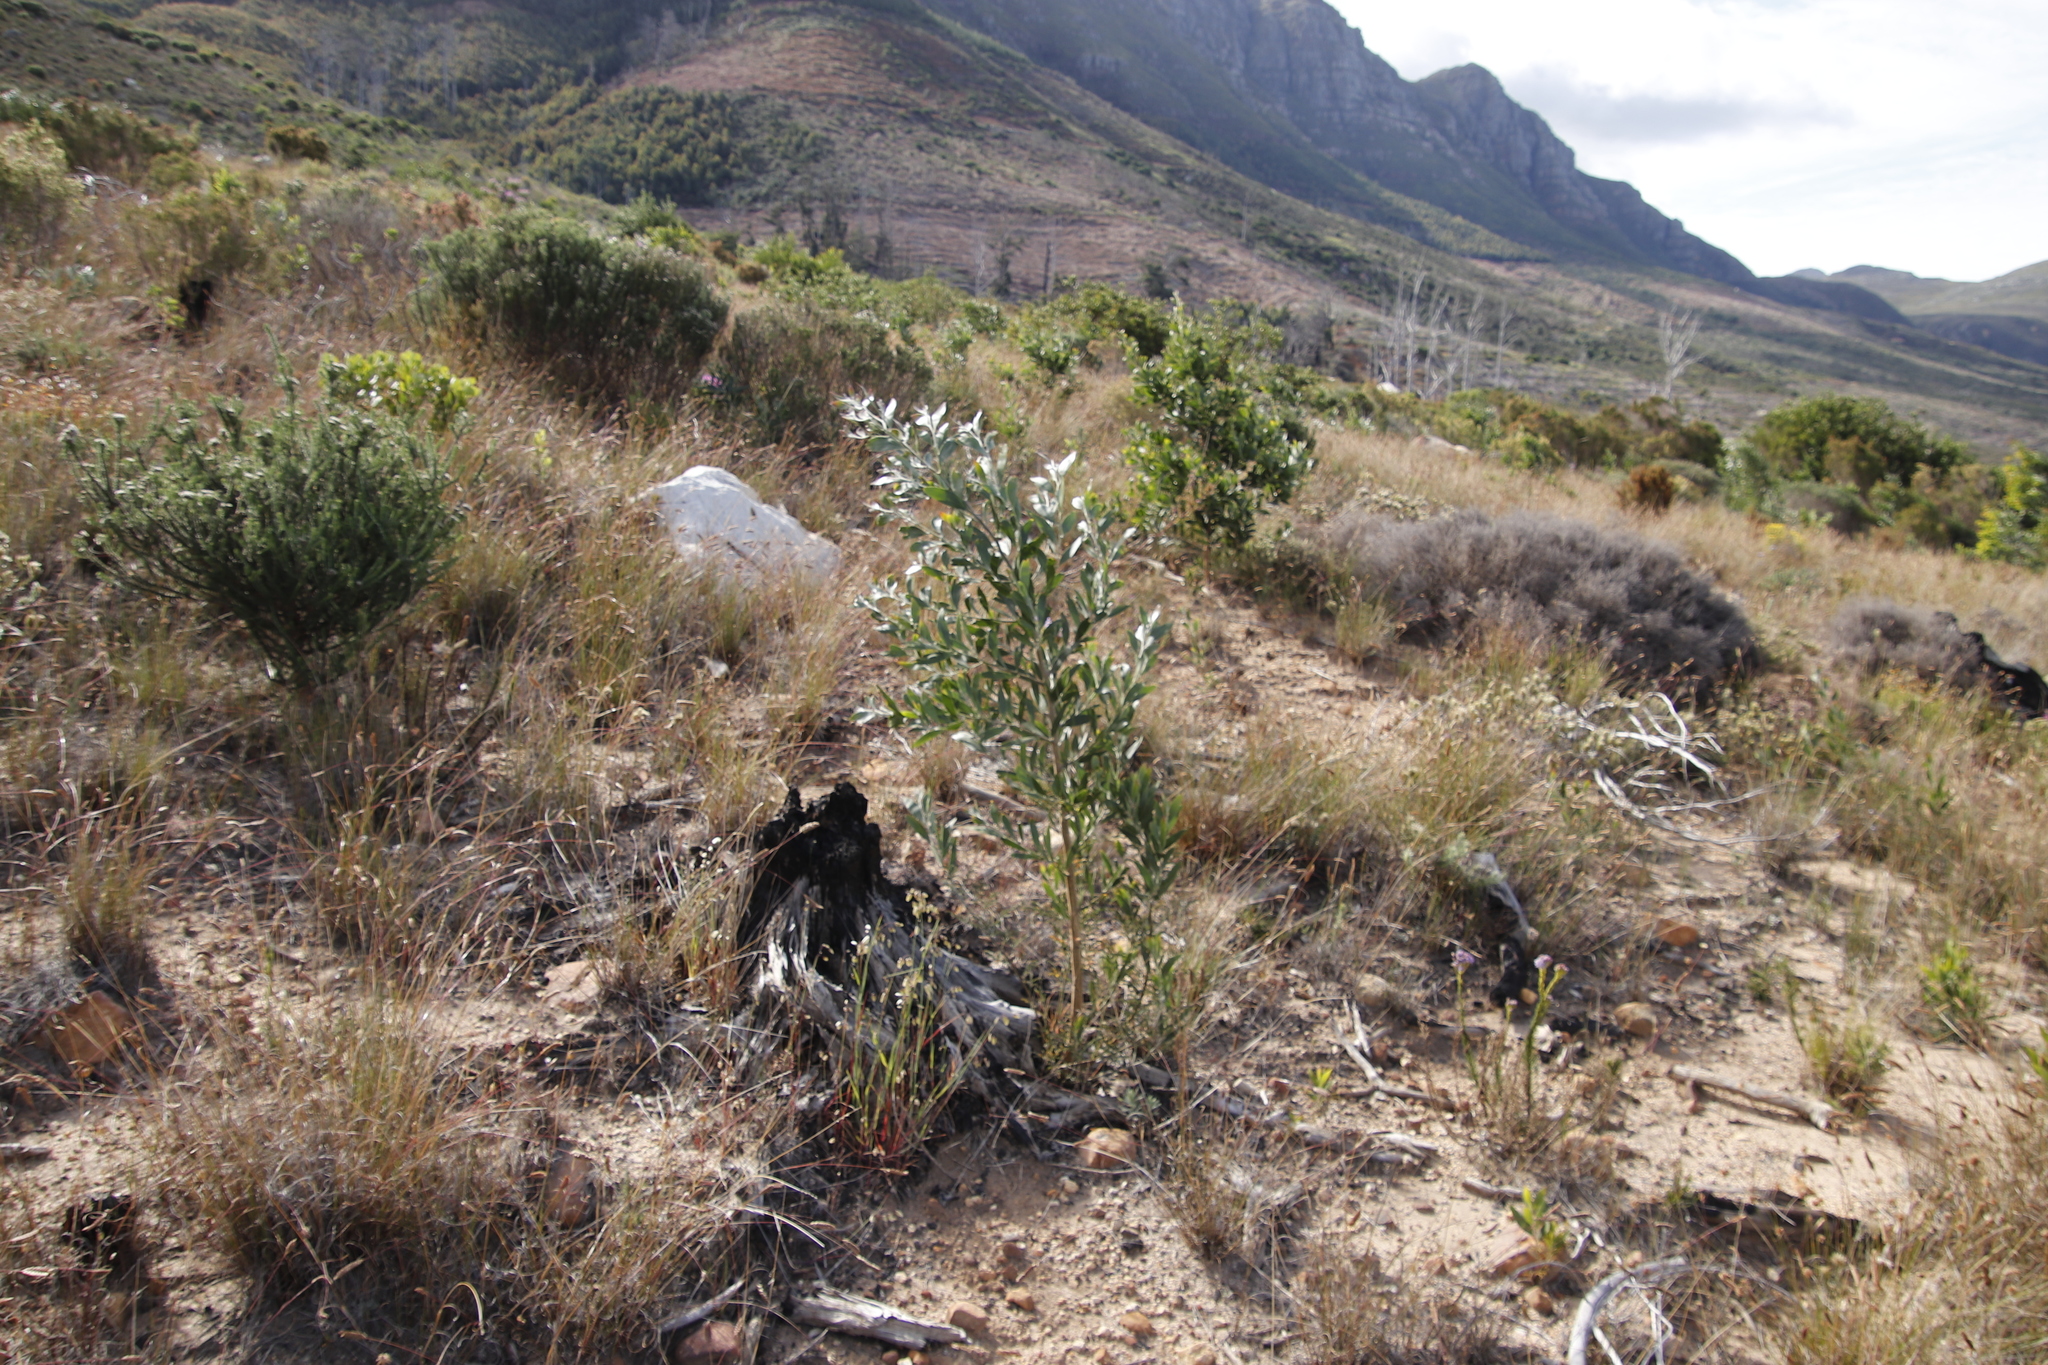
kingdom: Plantae
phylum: Tracheophyta
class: Magnoliopsida
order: Fabales
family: Fabaceae
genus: Acacia
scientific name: Acacia melanoxylon
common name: Blackwood
